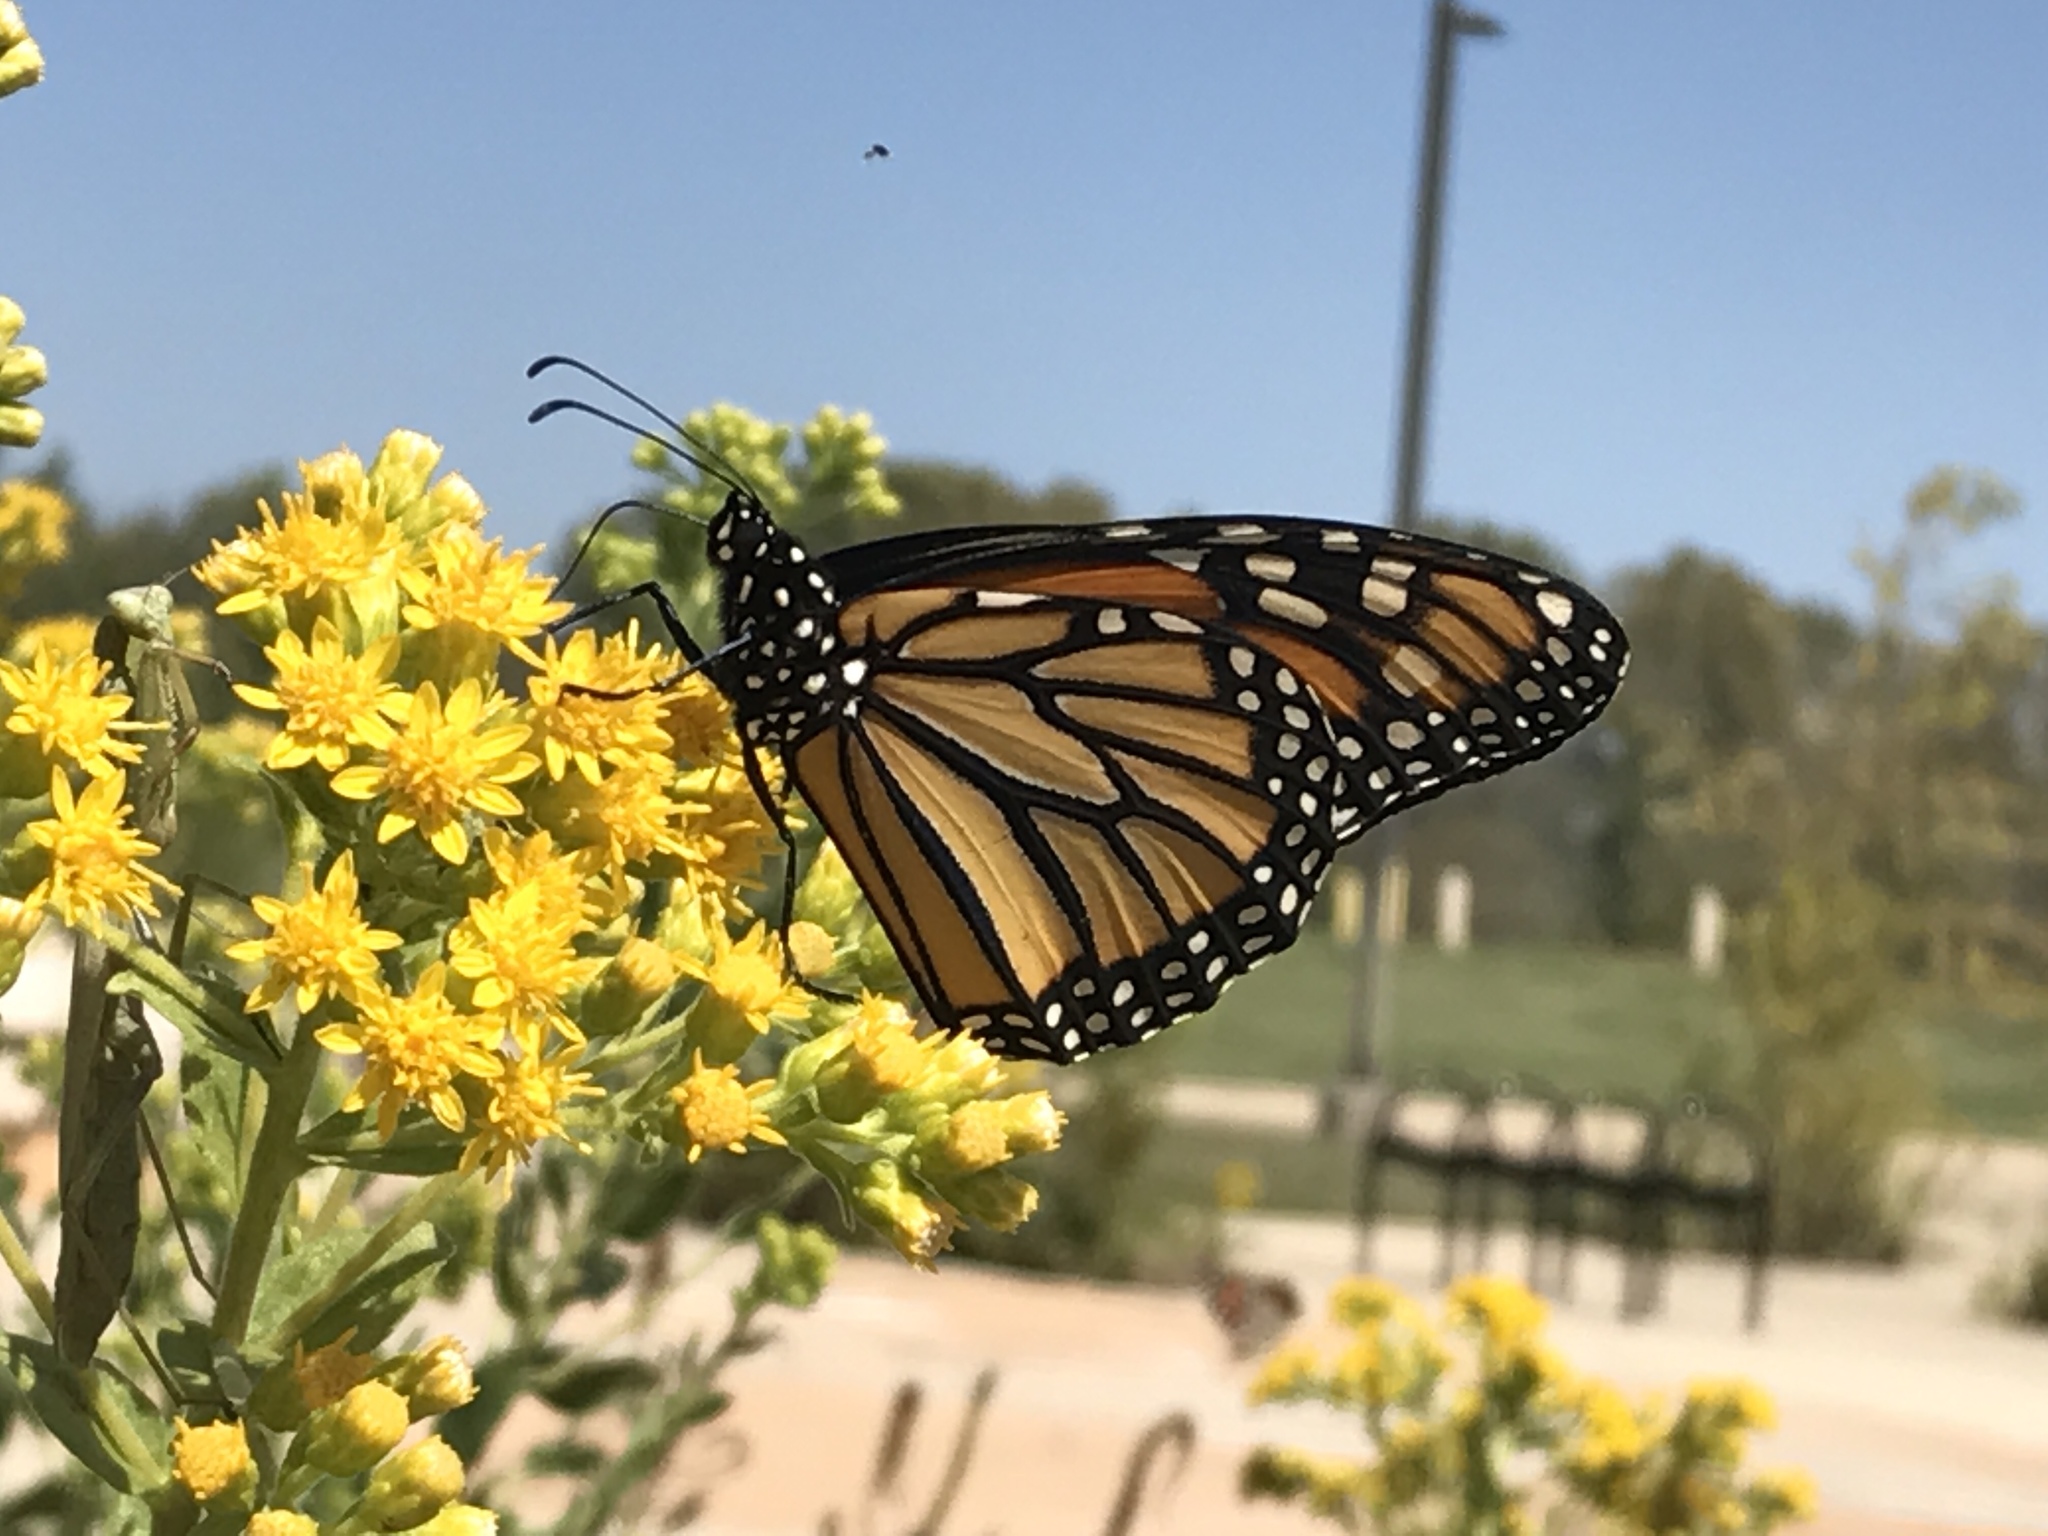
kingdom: Animalia
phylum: Arthropoda
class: Insecta
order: Lepidoptera
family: Nymphalidae
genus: Danaus
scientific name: Danaus plexippus
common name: Monarch
